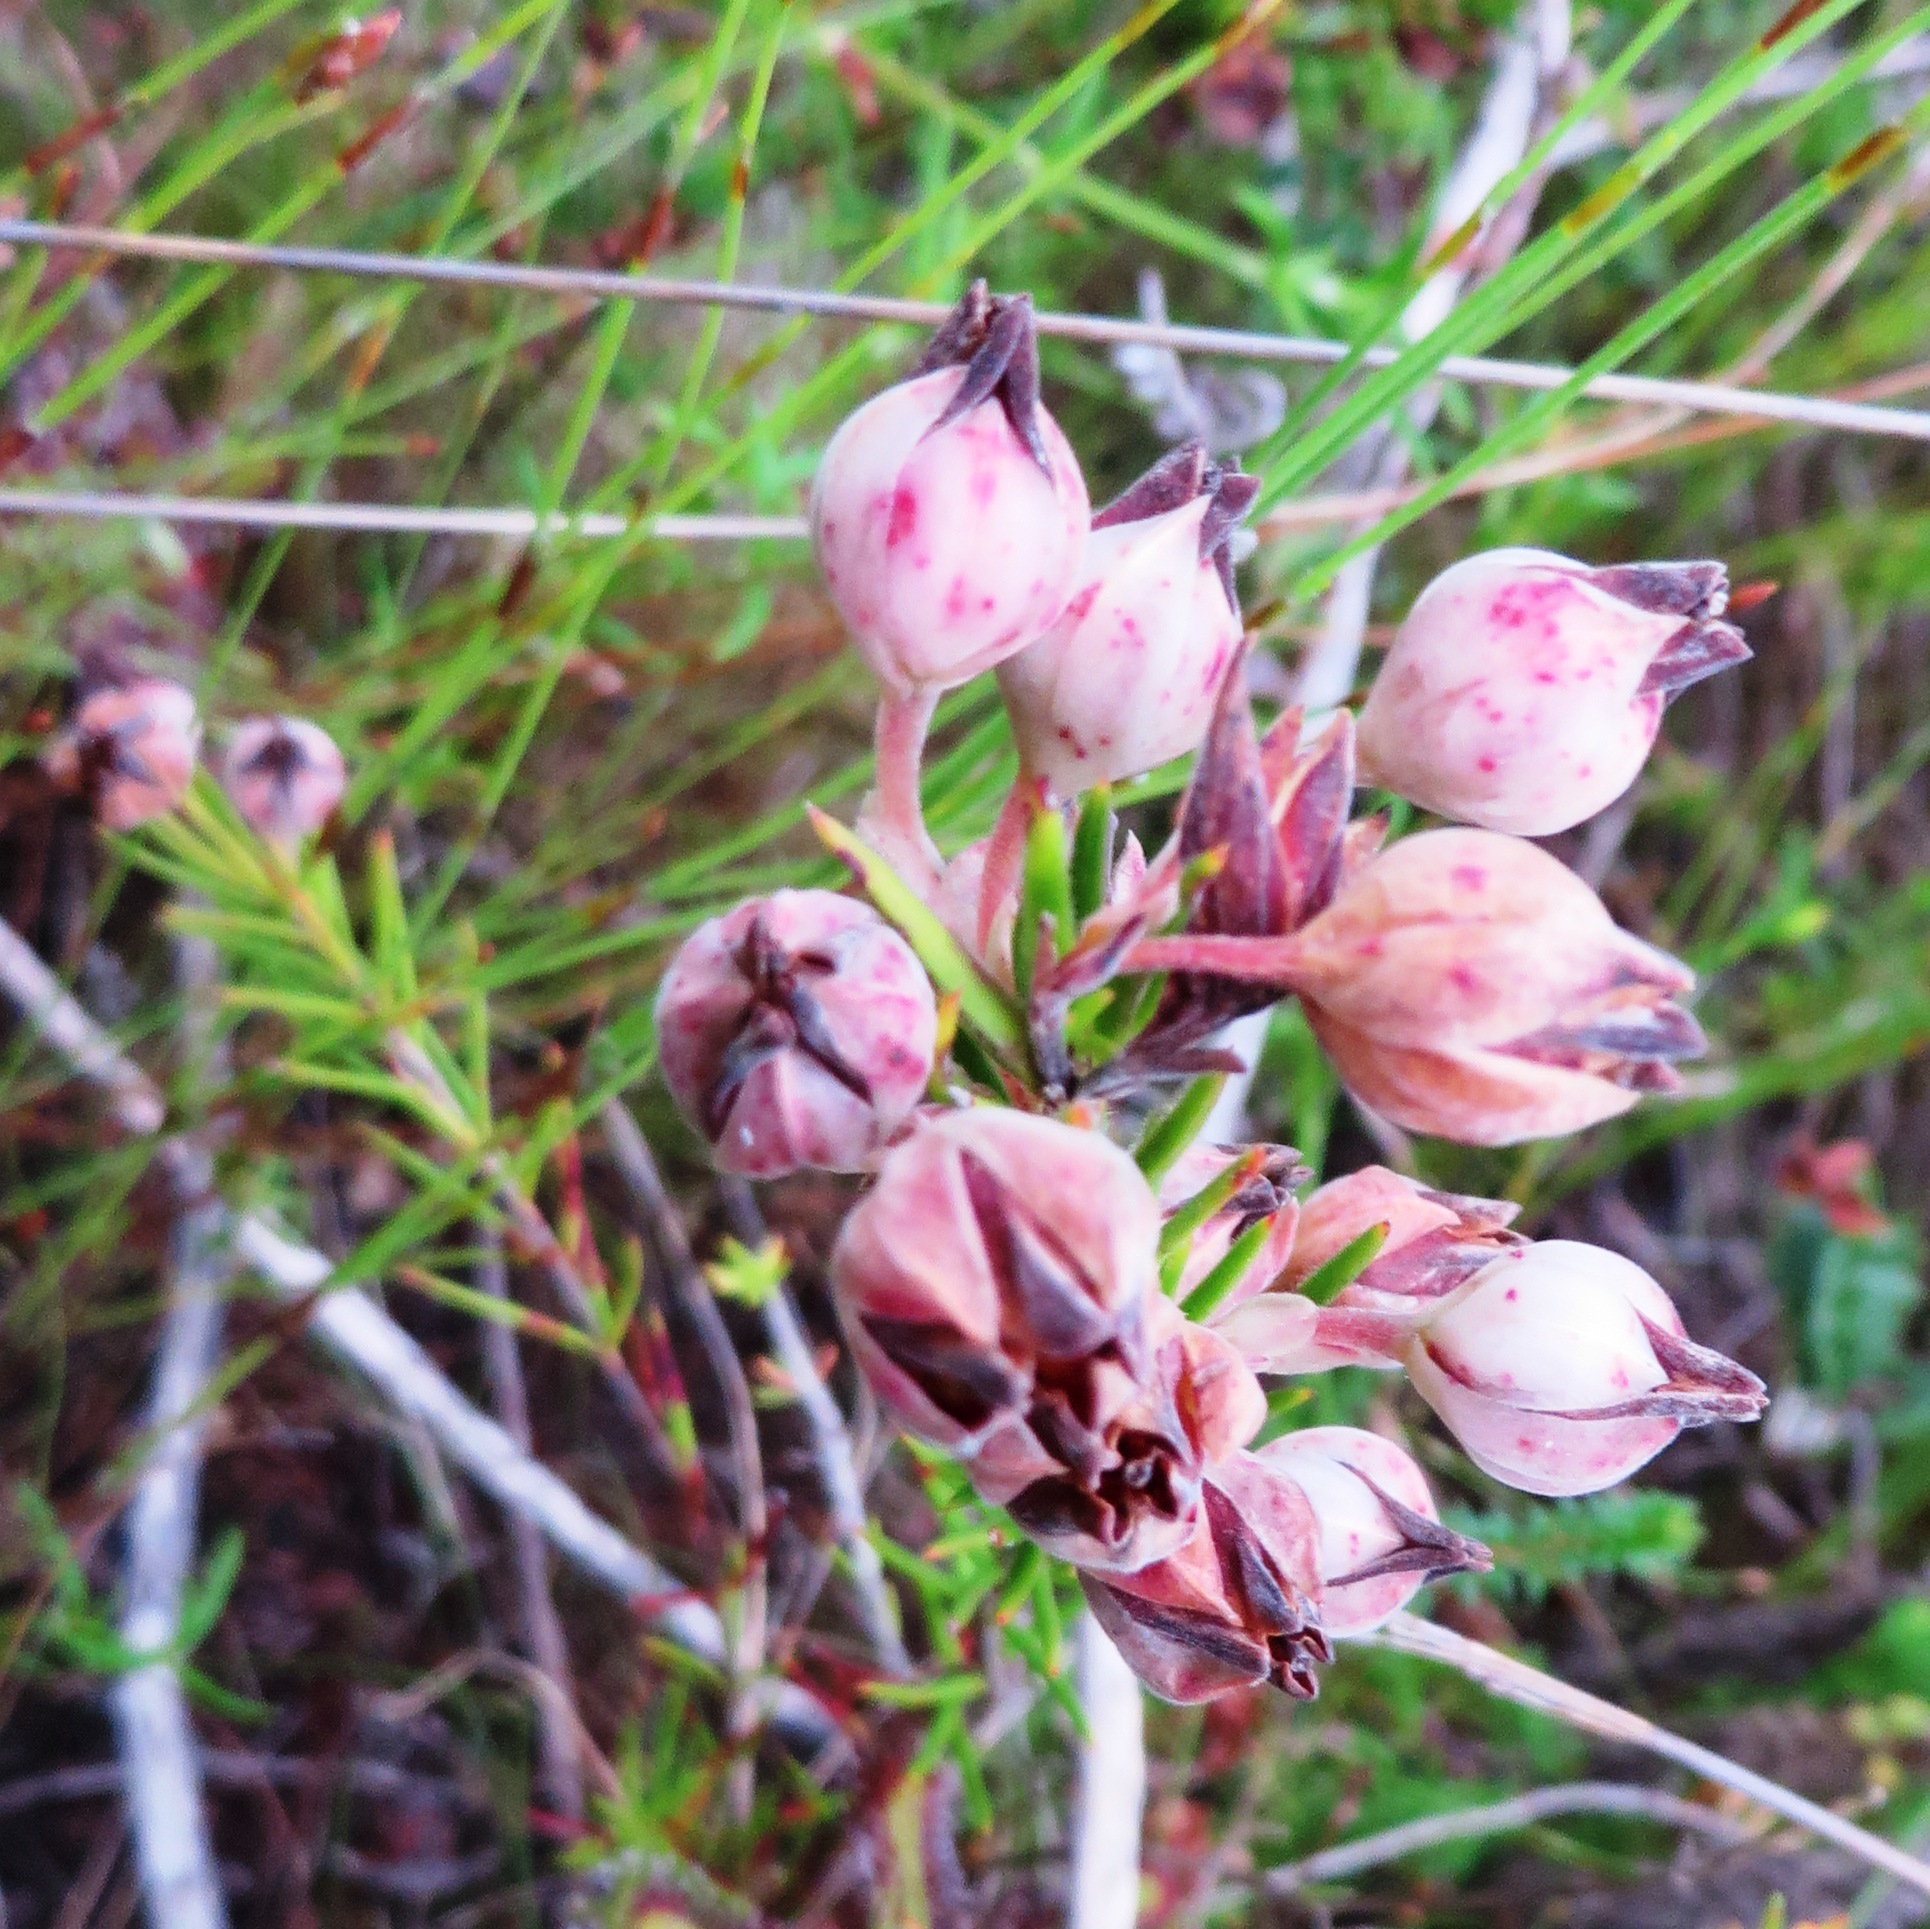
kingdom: Plantae
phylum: Tracheophyta
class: Magnoliopsida
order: Ericales
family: Ericaceae
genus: Erica
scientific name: Erica holosericea
